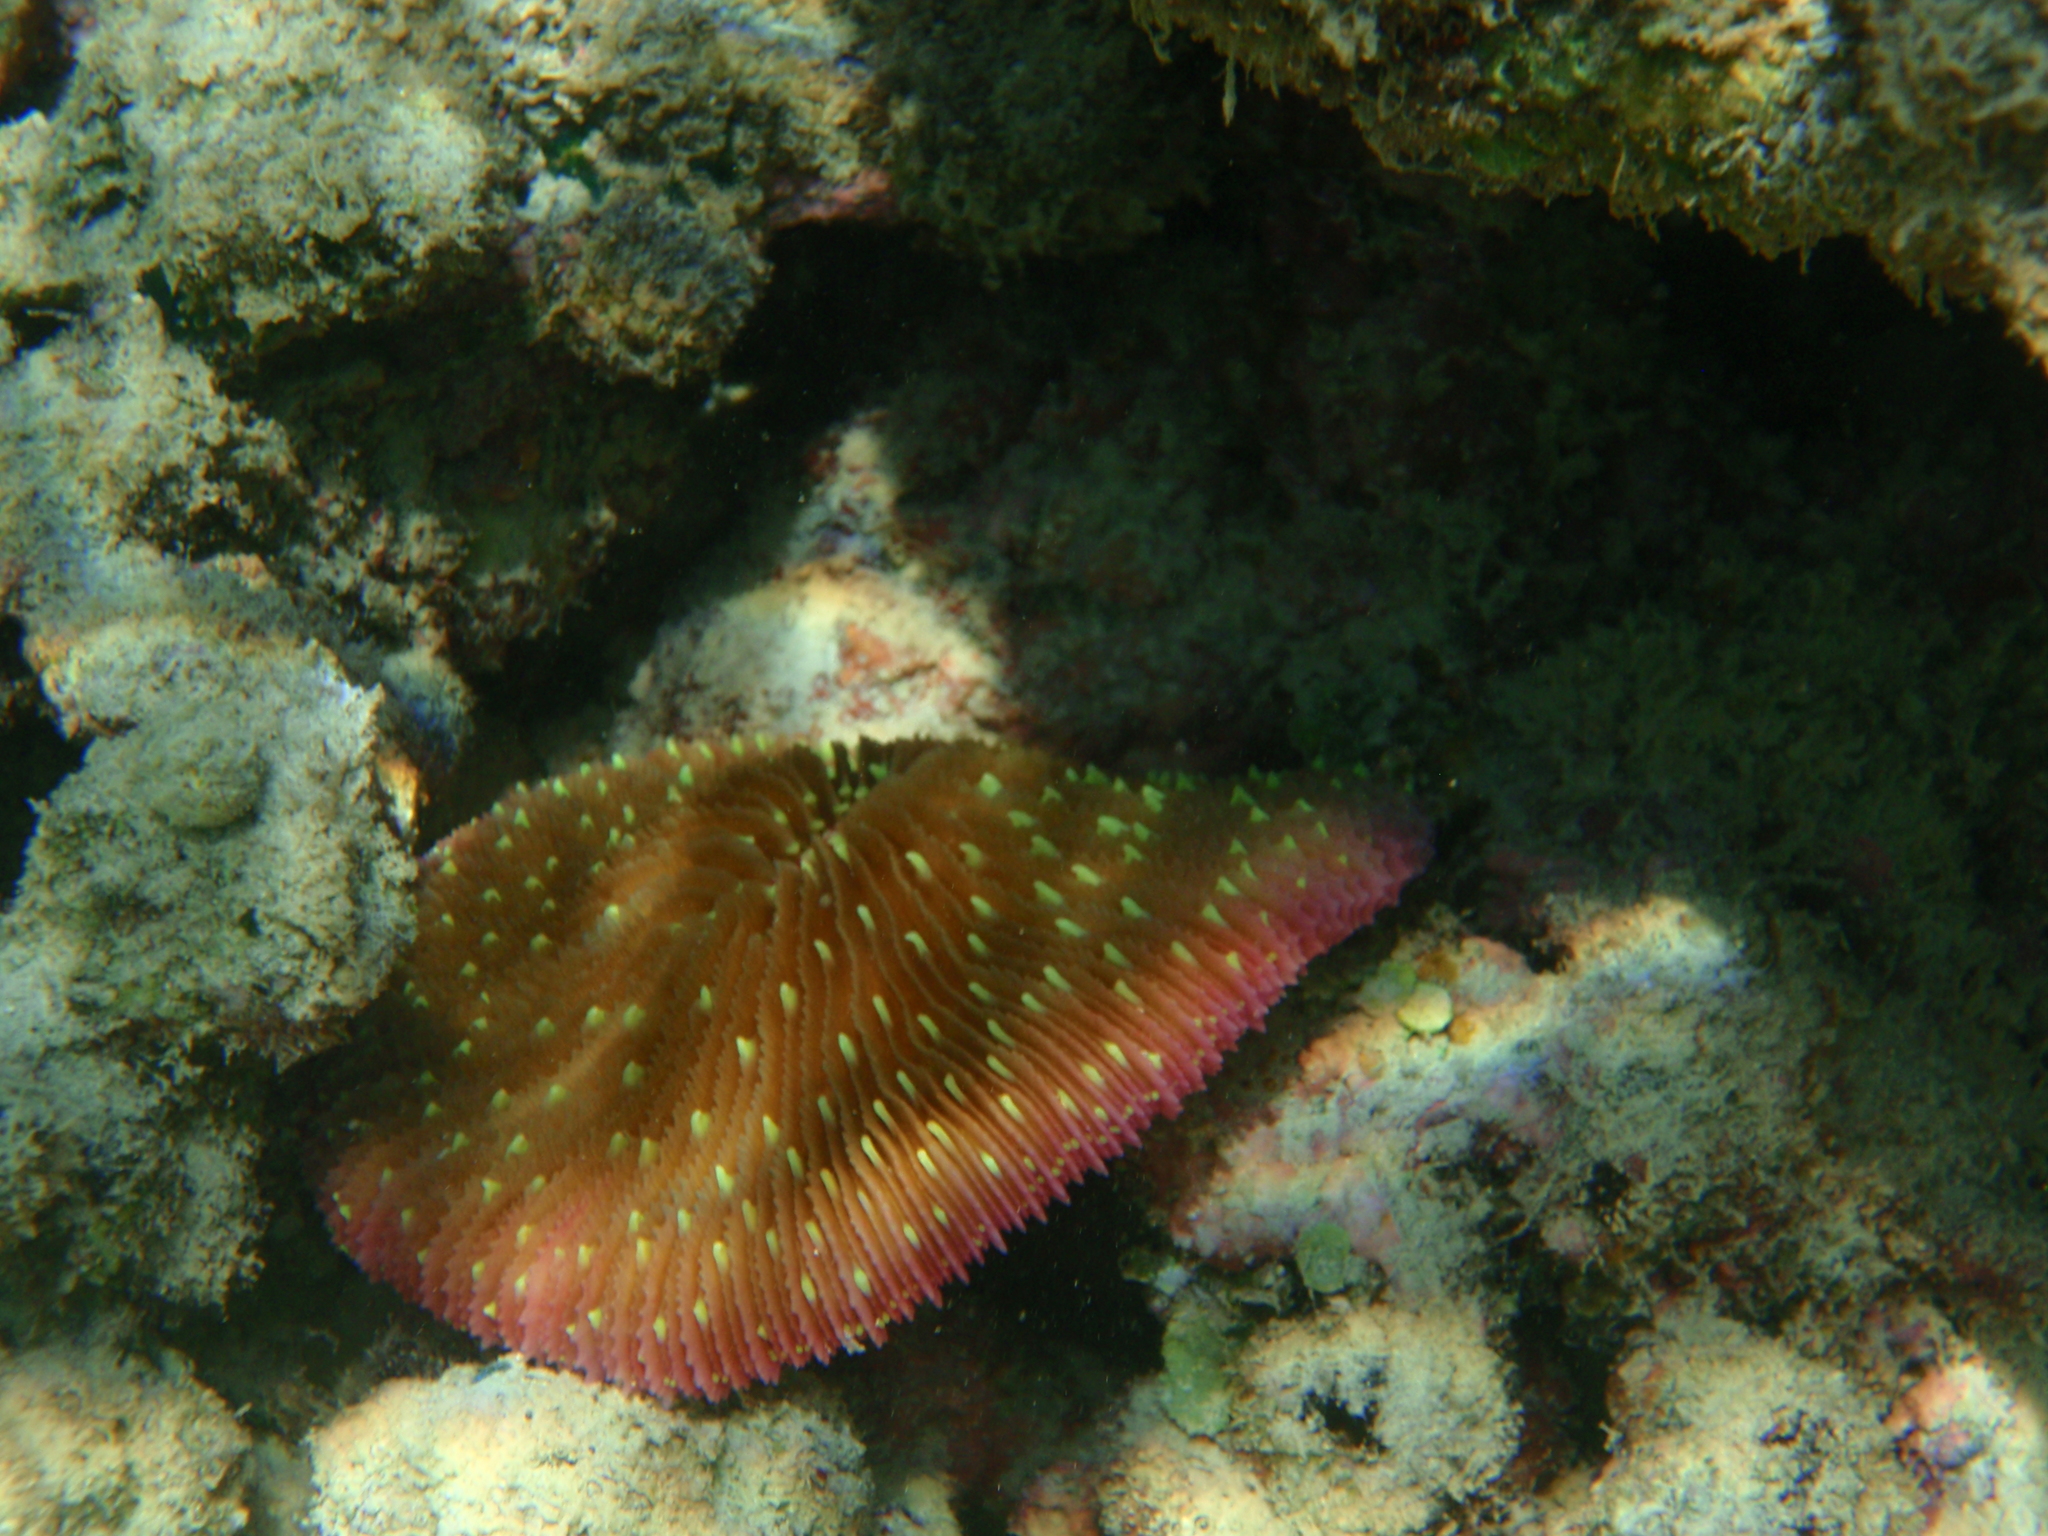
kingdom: Animalia
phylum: Cnidaria
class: Anthozoa
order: Scleractinia
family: Fungiidae
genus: Fungia
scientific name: Fungia fungites
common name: Mushroom coral
